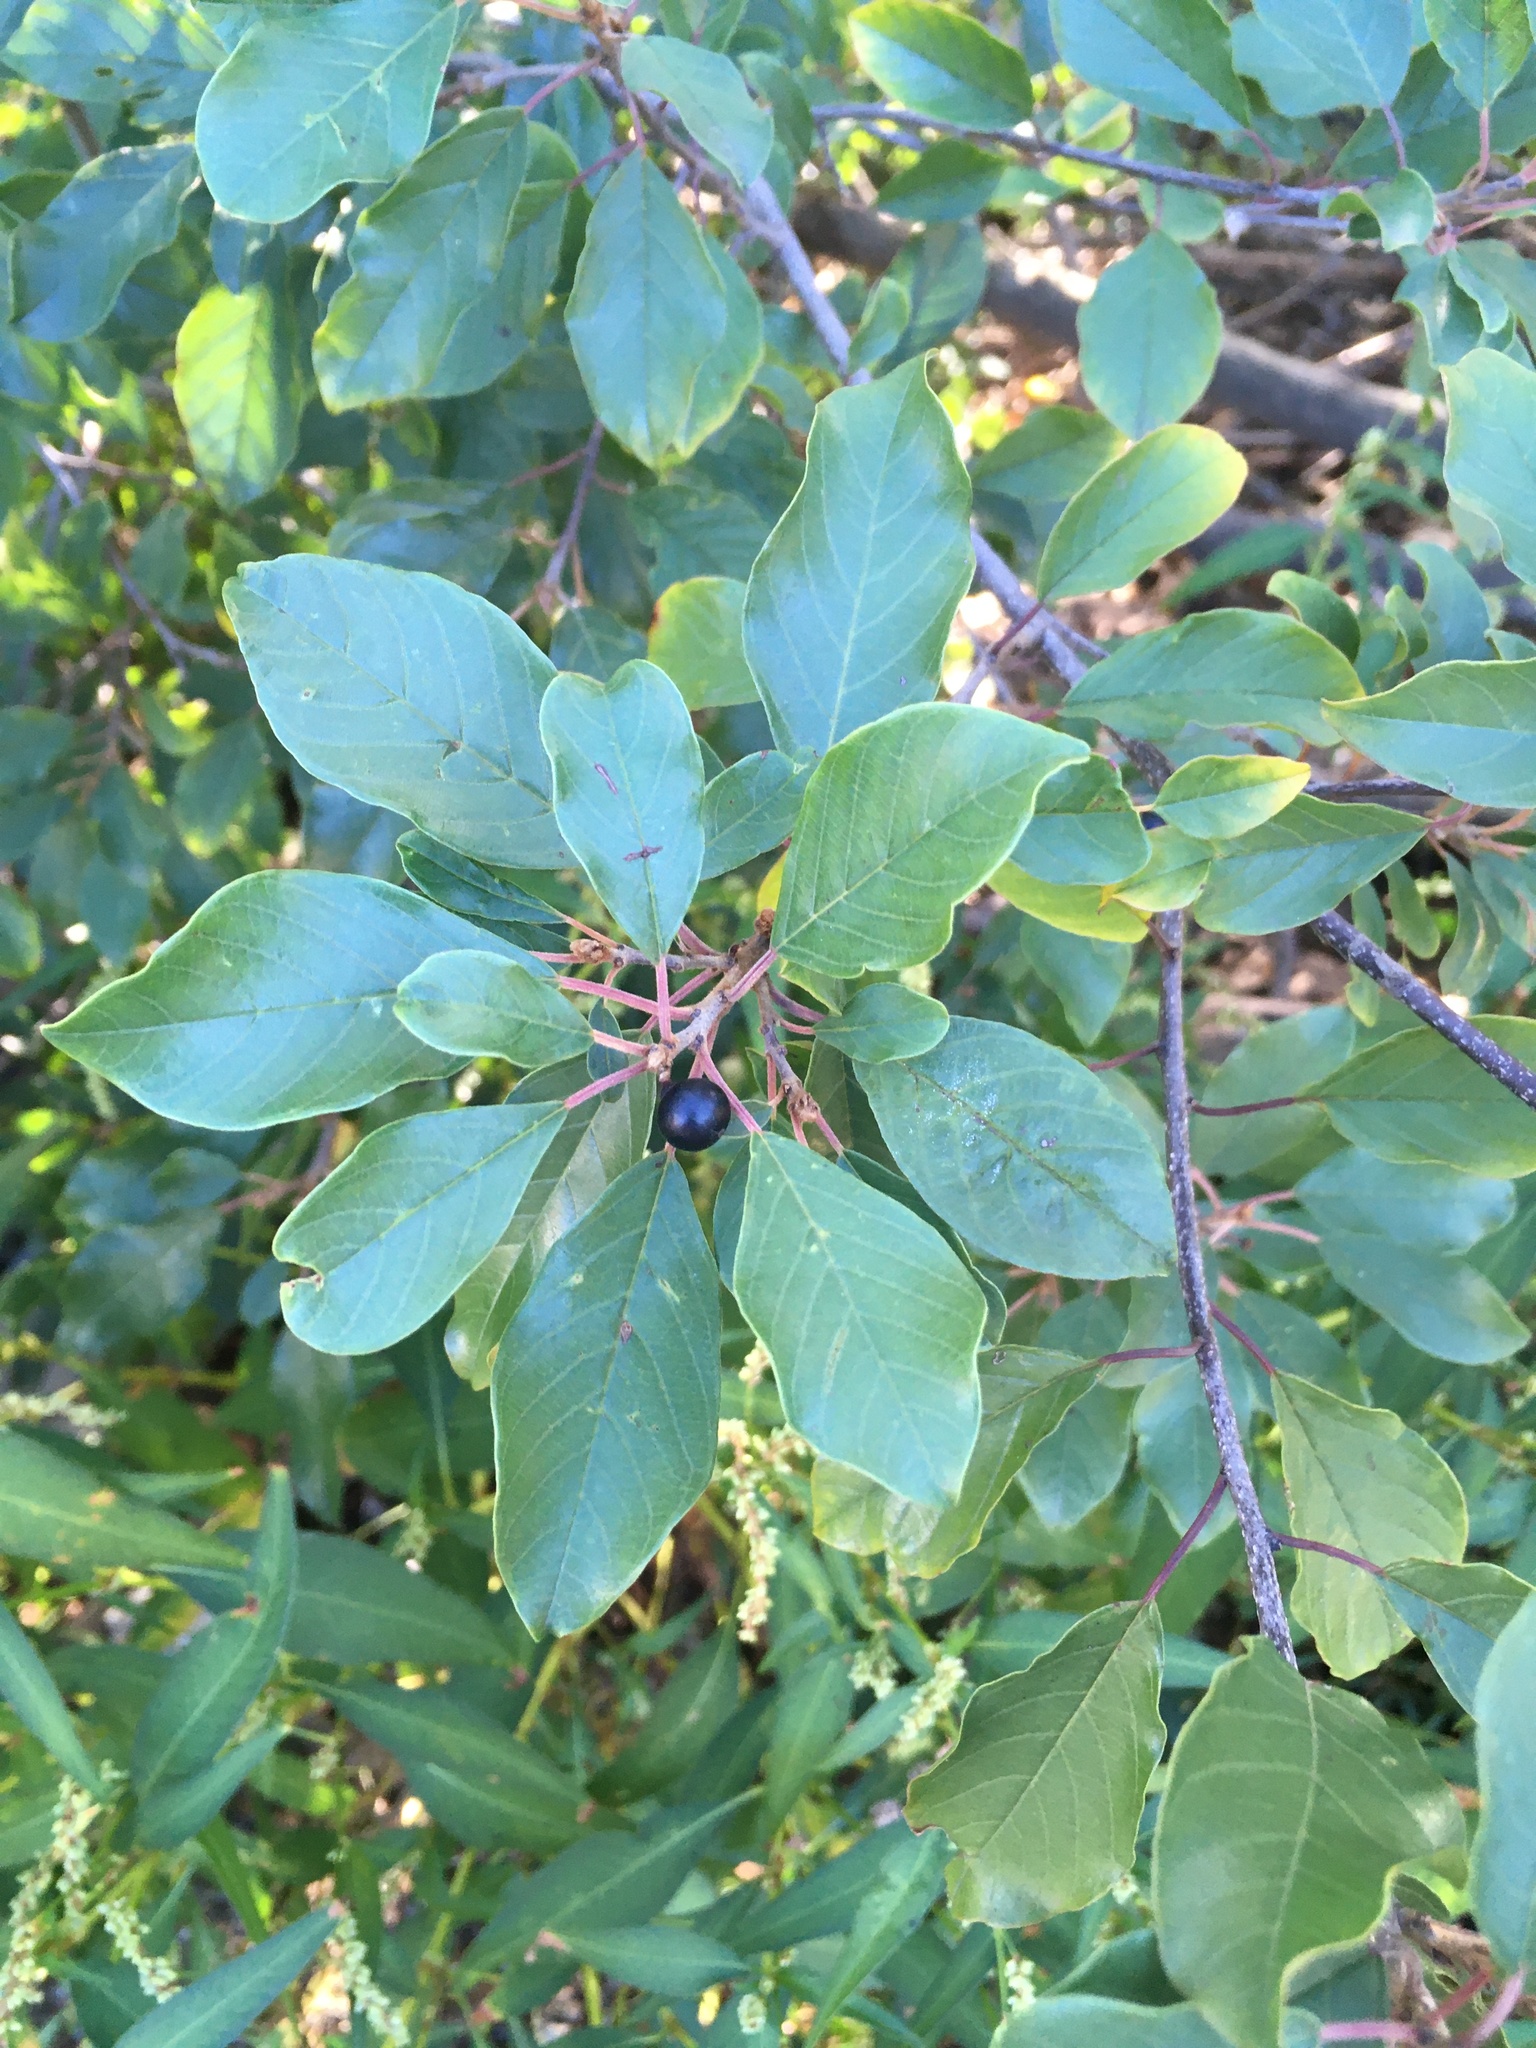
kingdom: Plantae
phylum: Tracheophyta
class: Magnoliopsida
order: Rosales
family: Rhamnaceae
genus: Frangula
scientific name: Frangula alnus
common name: Alder buckthorn
